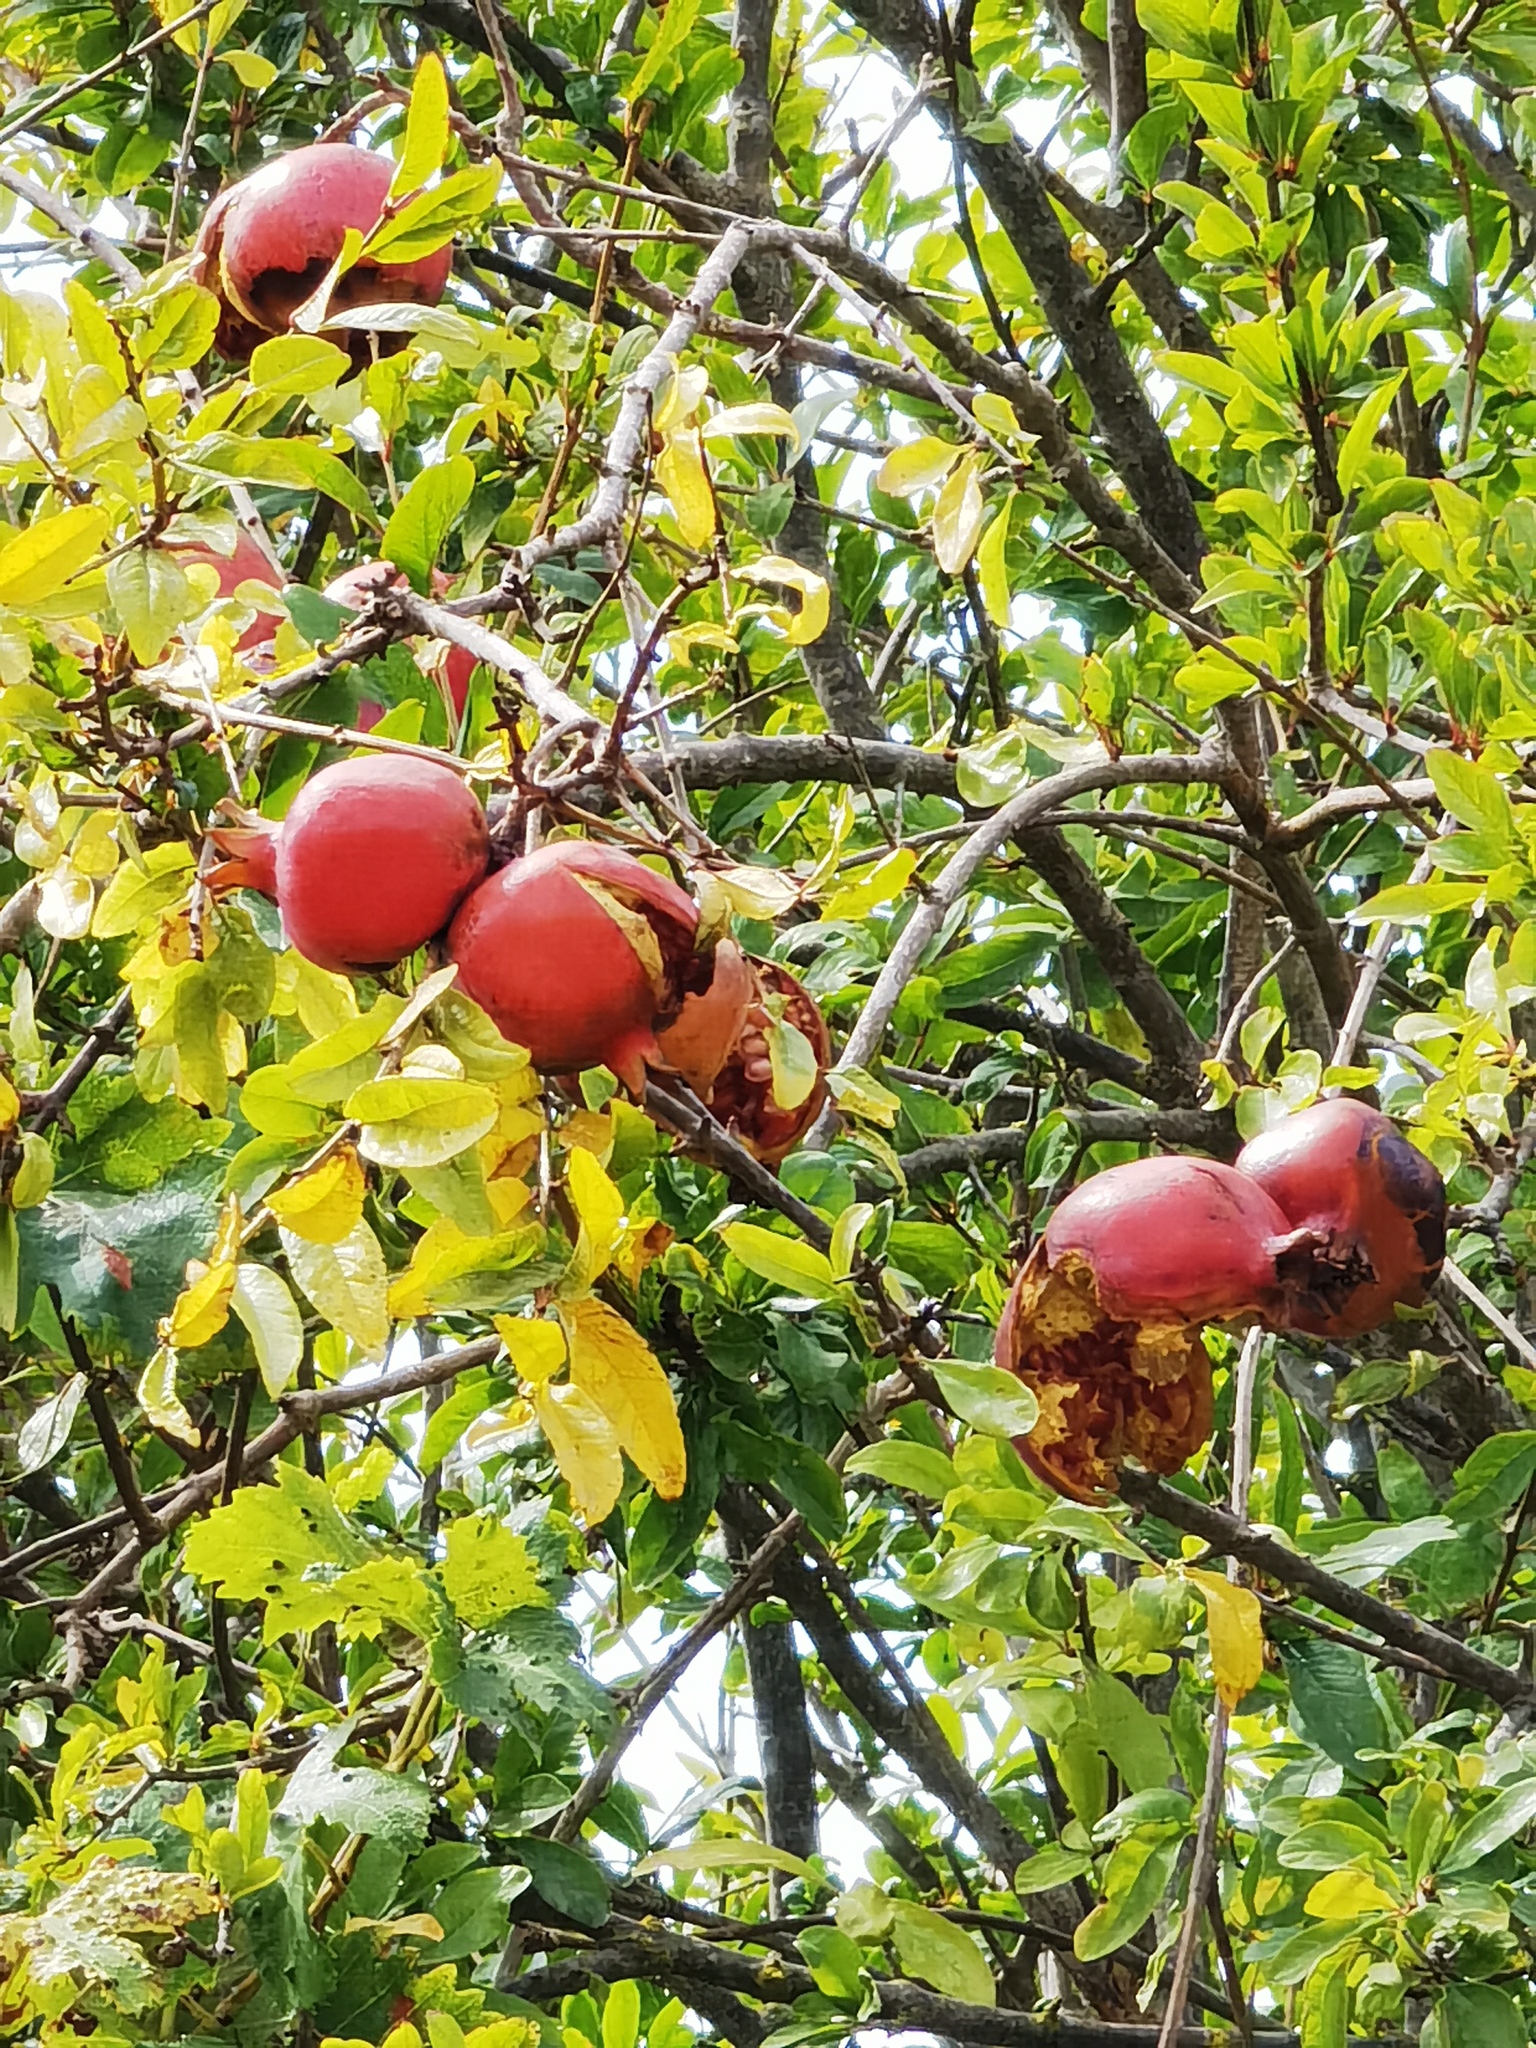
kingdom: Plantae
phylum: Tracheophyta
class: Magnoliopsida
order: Myrtales
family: Lythraceae
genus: Punica
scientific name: Punica granatum
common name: Pomegranate
